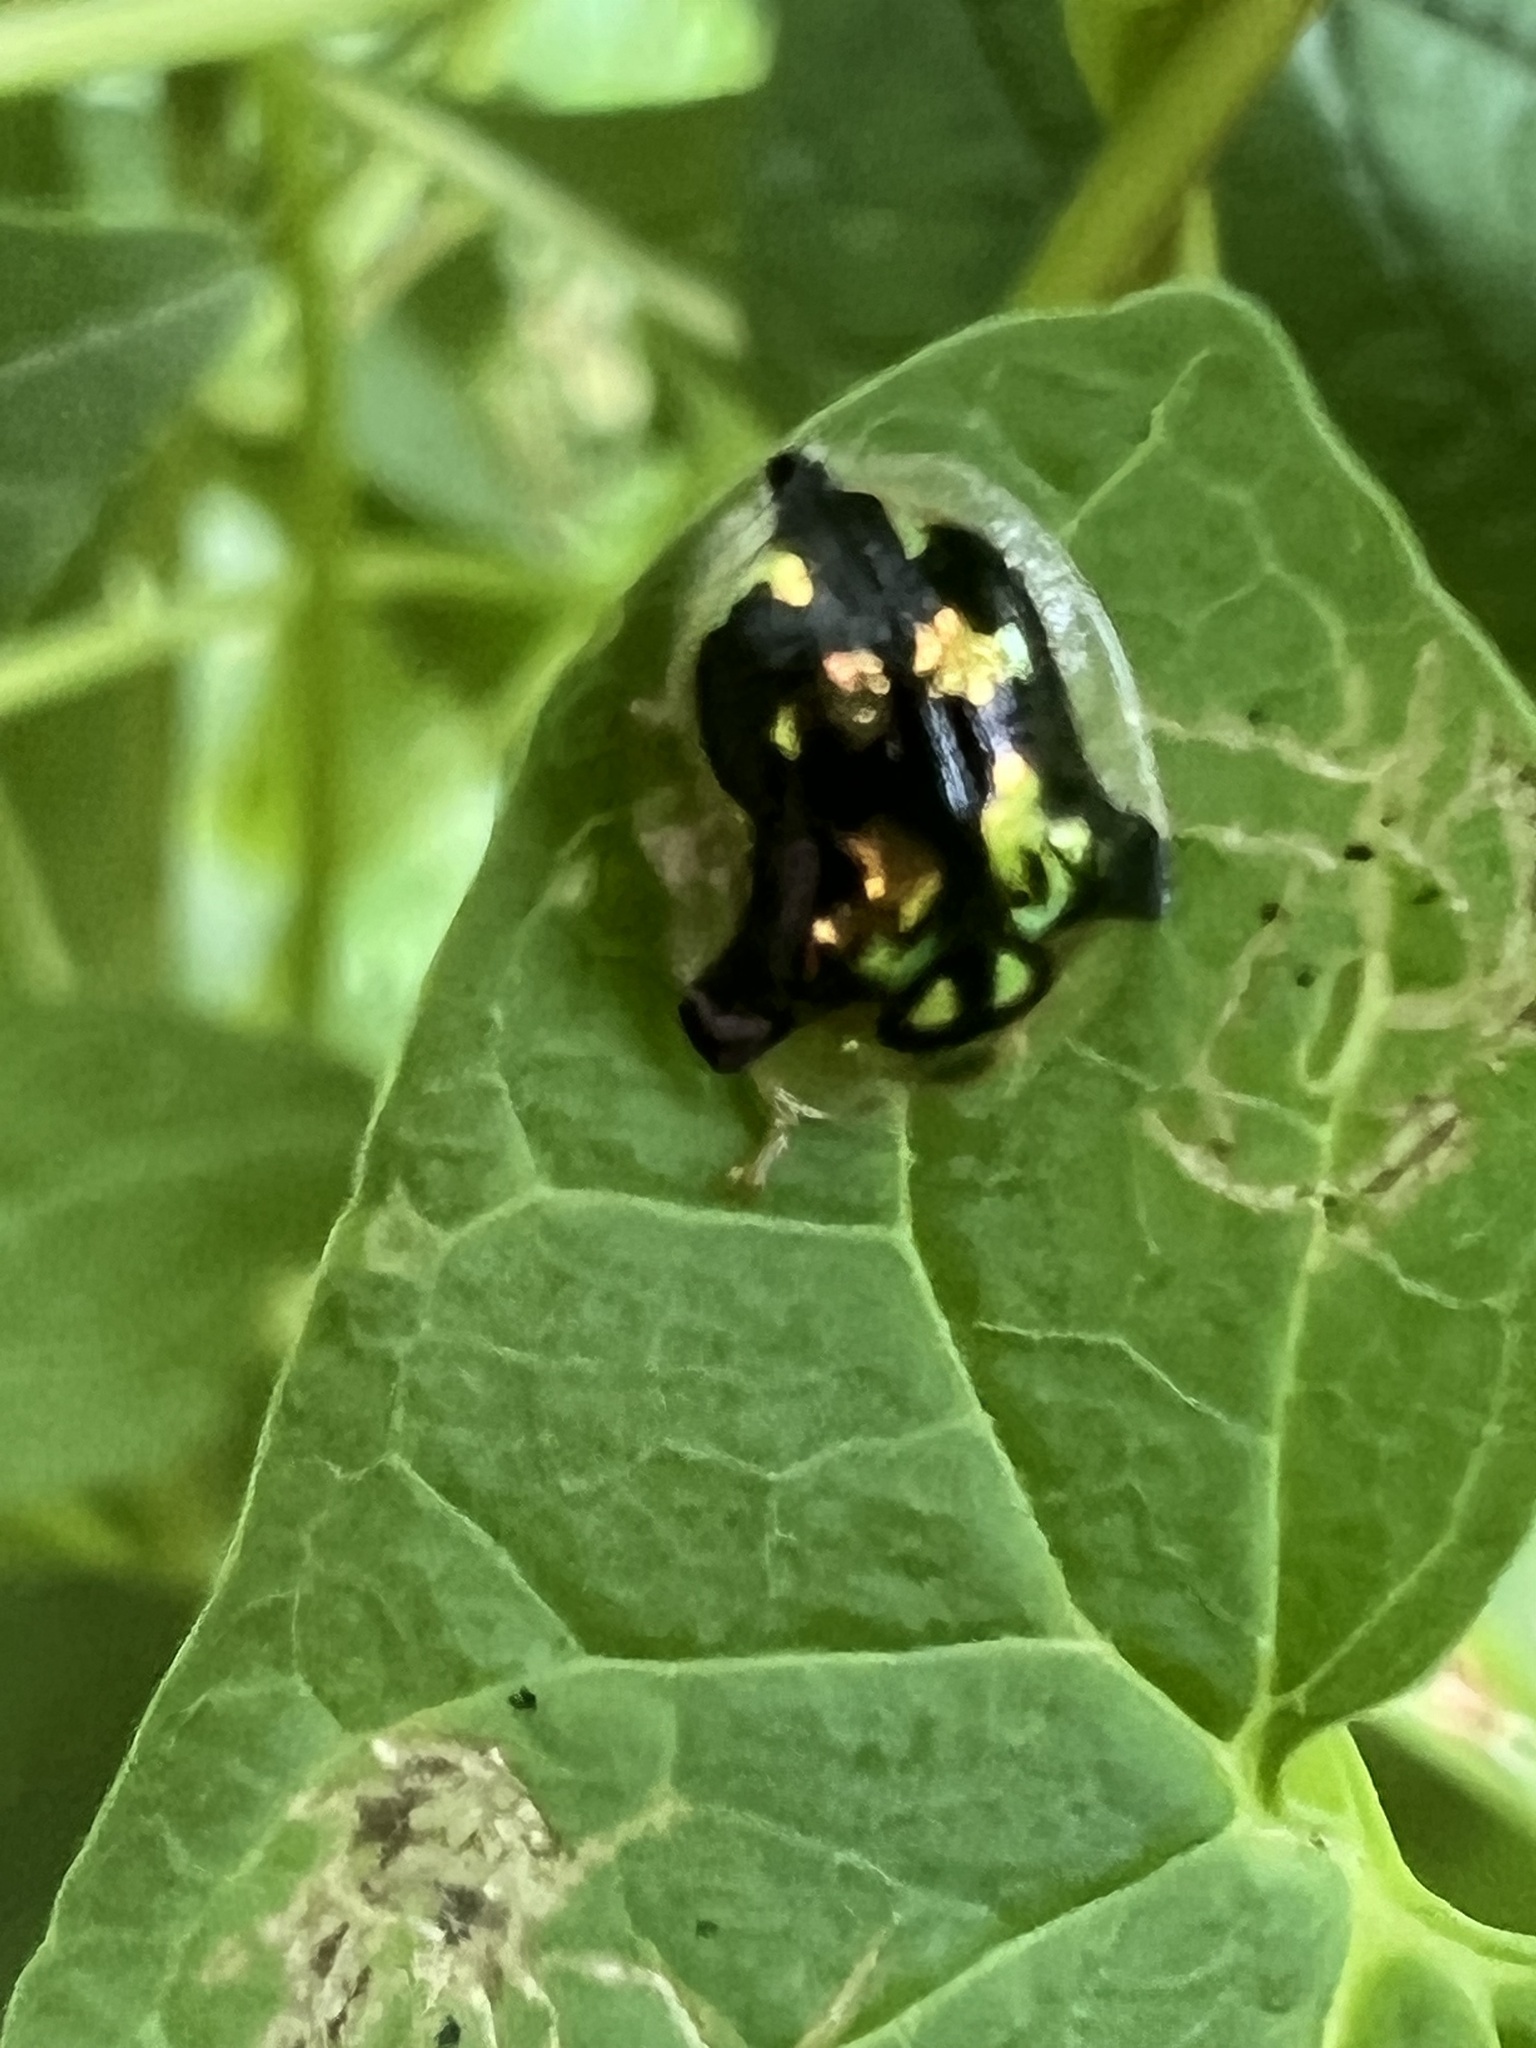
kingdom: Animalia
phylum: Arthropoda
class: Insecta
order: Coleoptera
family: Chrysomelidae
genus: Deloyala
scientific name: Deloyala guttata
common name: Mottled tortoise beetle
